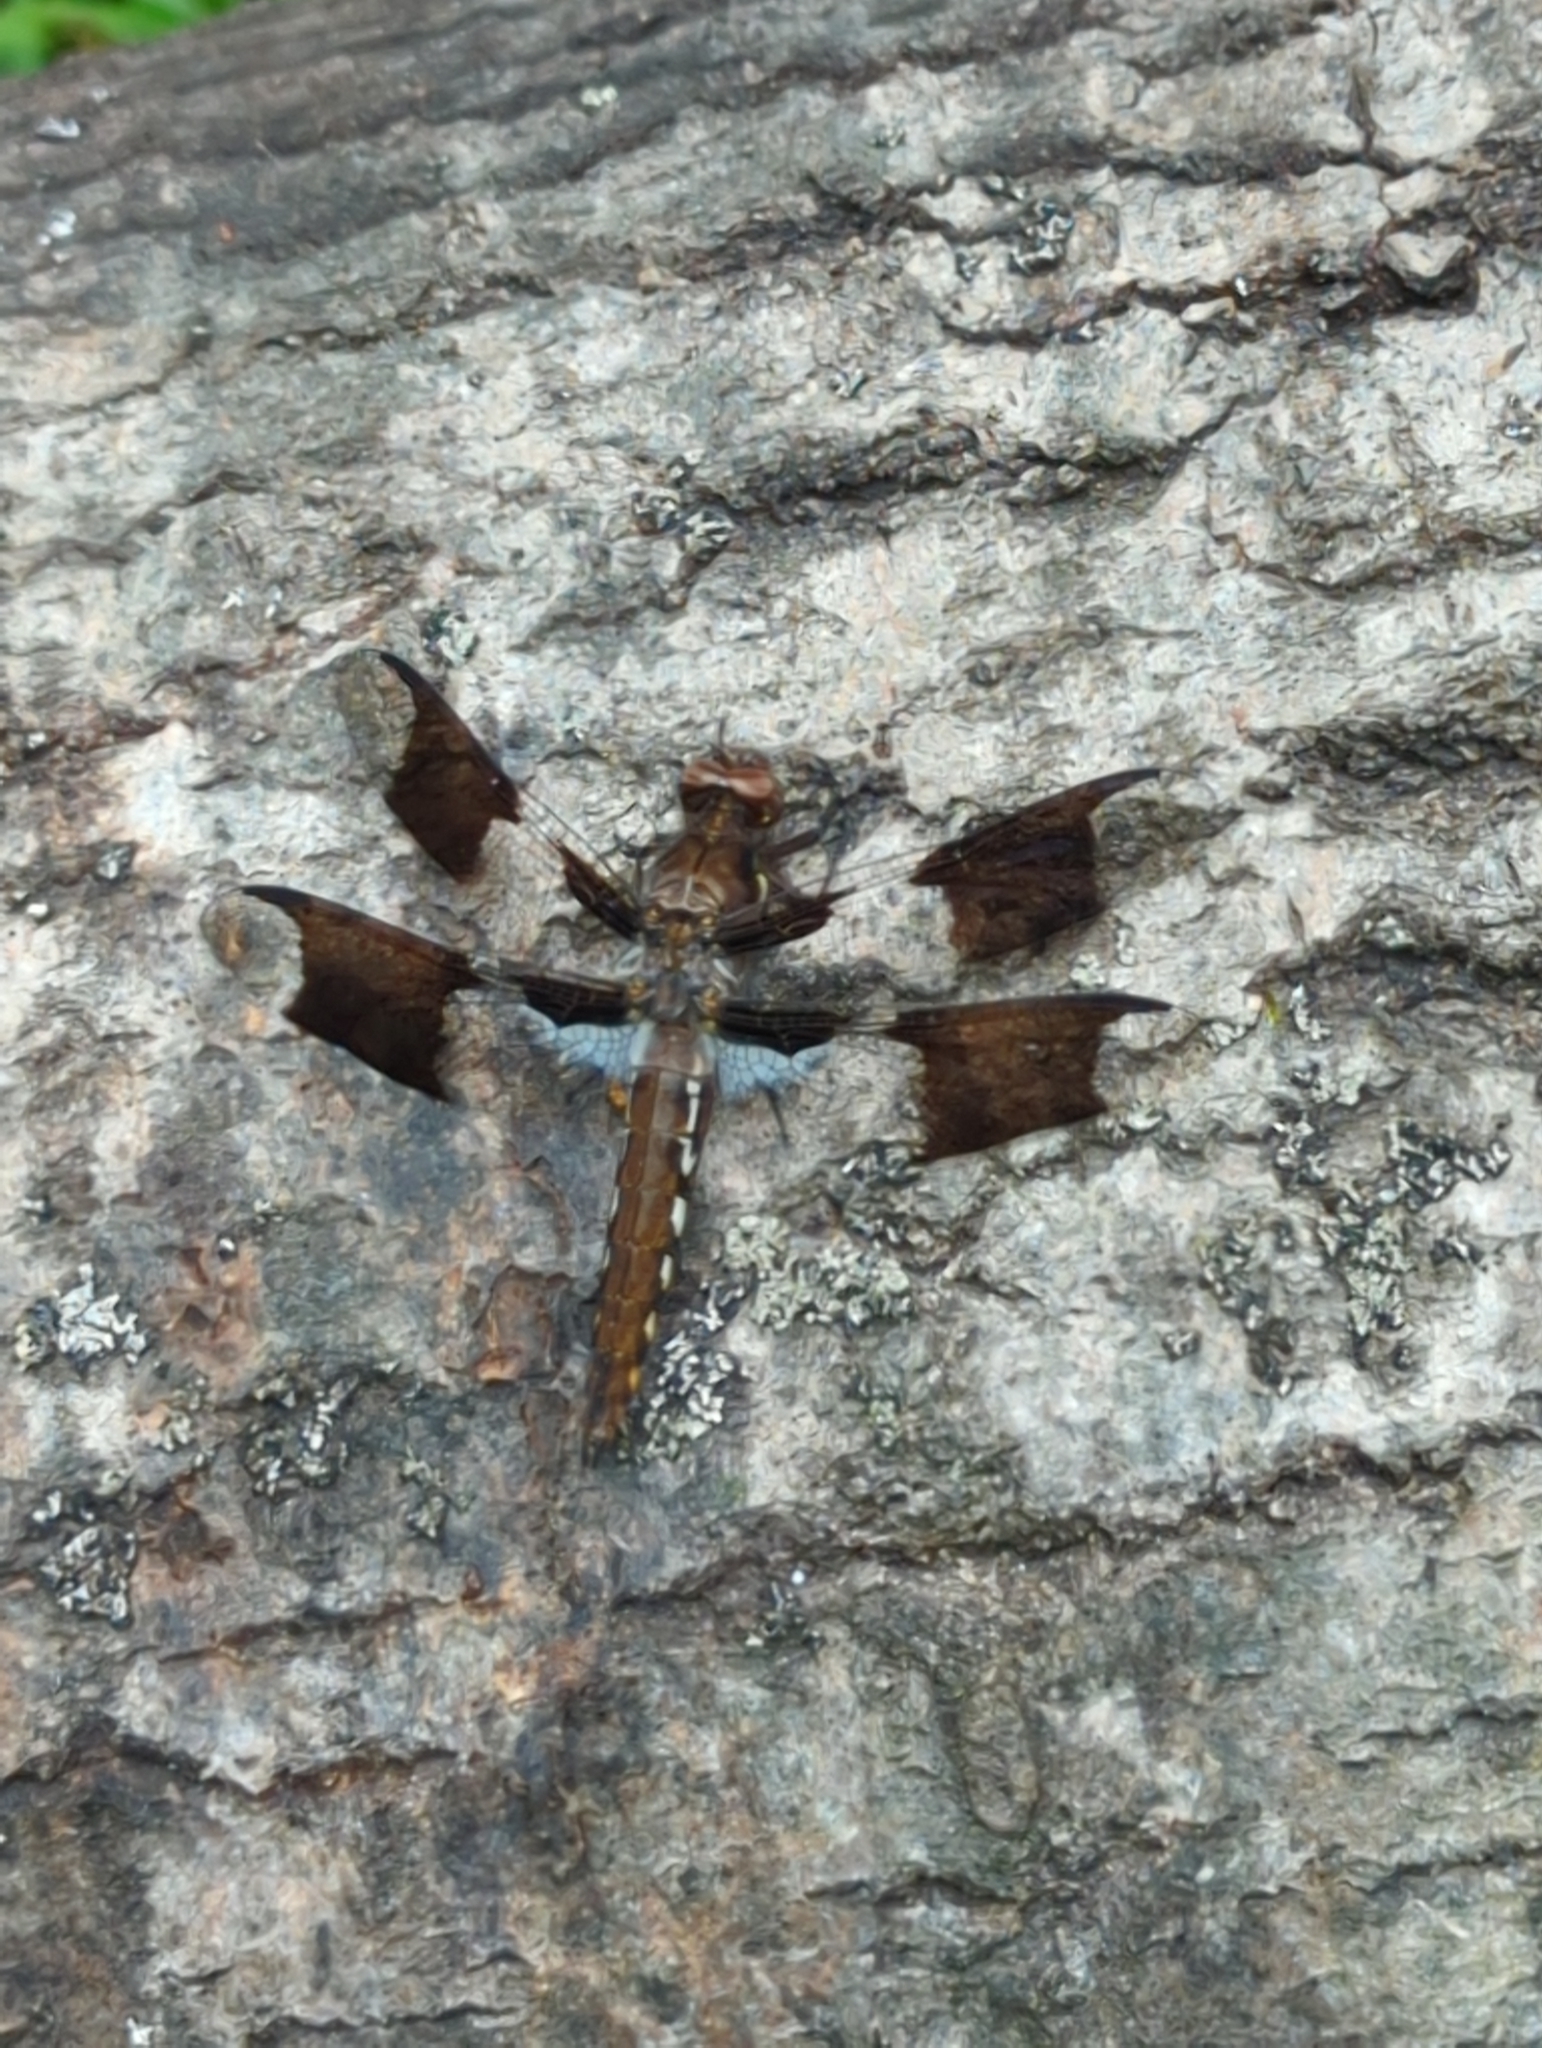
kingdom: Animalia
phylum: Arthropoda
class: Insecta
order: Odonata
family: Libellulidae
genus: Plathemis
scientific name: Plathemis lydia
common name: Common whitetail
